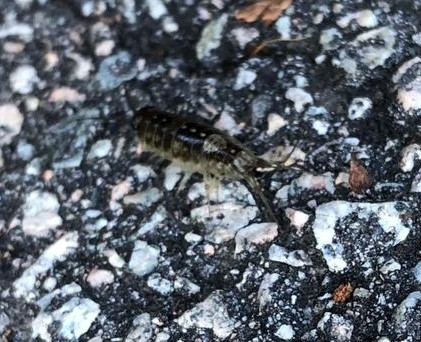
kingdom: Animalia
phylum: Arthropoda
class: Malacostraca
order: Isopoda
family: Ligiidae
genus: Ligia
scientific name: Ligia occidentalis
